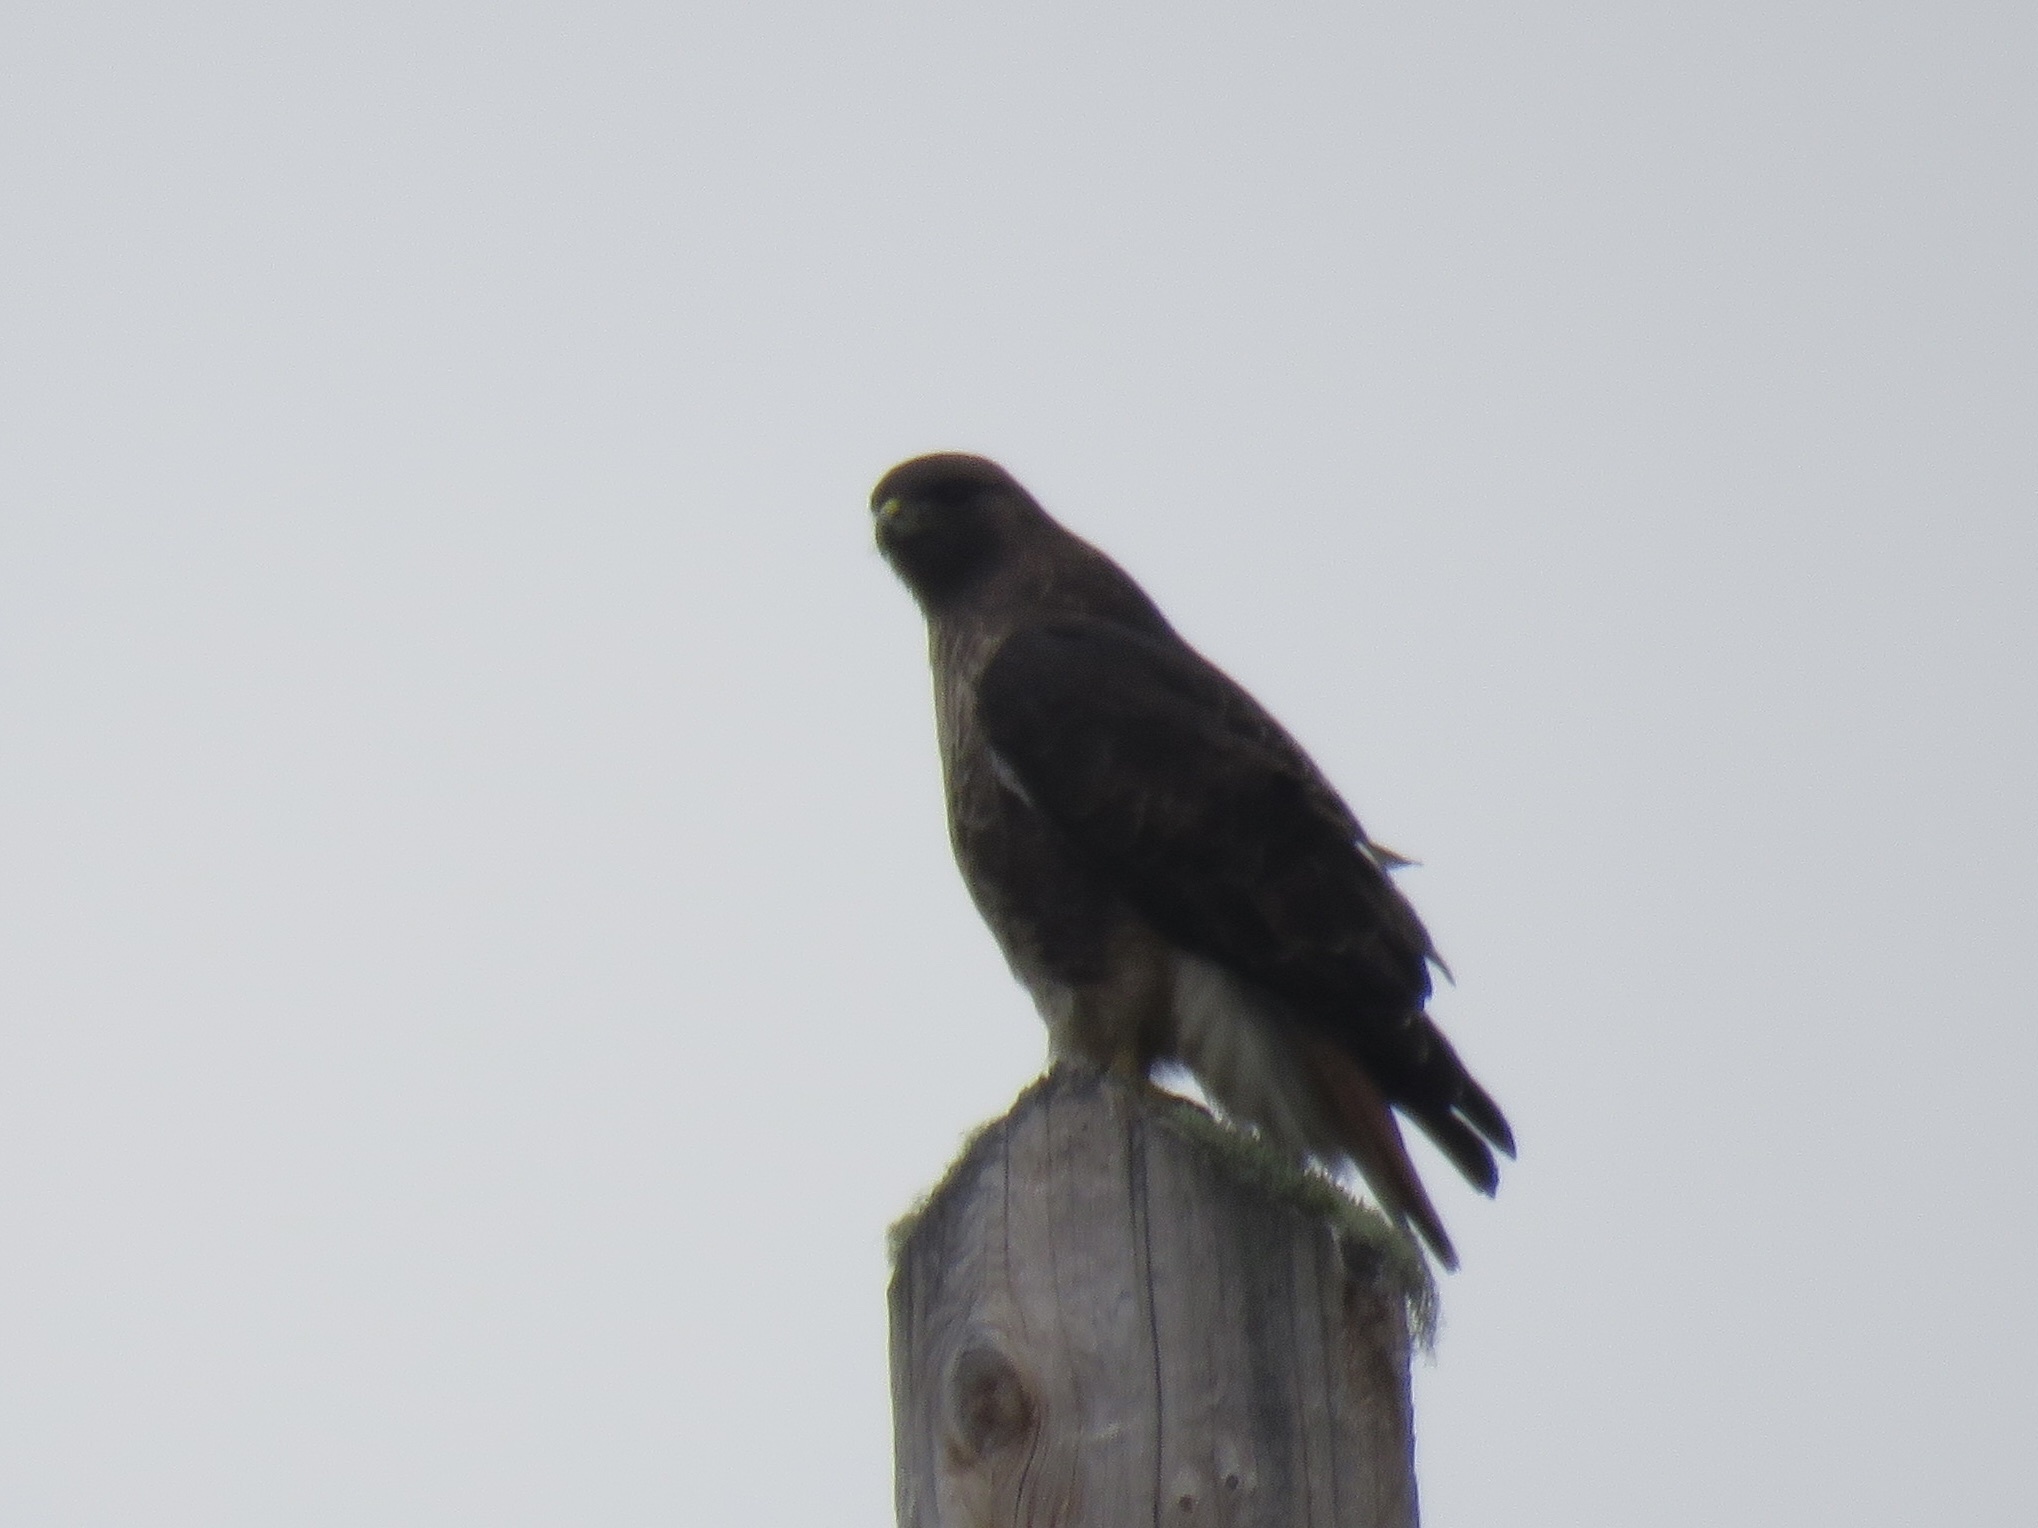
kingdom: Animalia
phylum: Chordata
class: Aves
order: Accipitriformes
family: Accipitridae
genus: Buteo
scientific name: Buteo jamaicensis
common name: Red-tailed hawk
